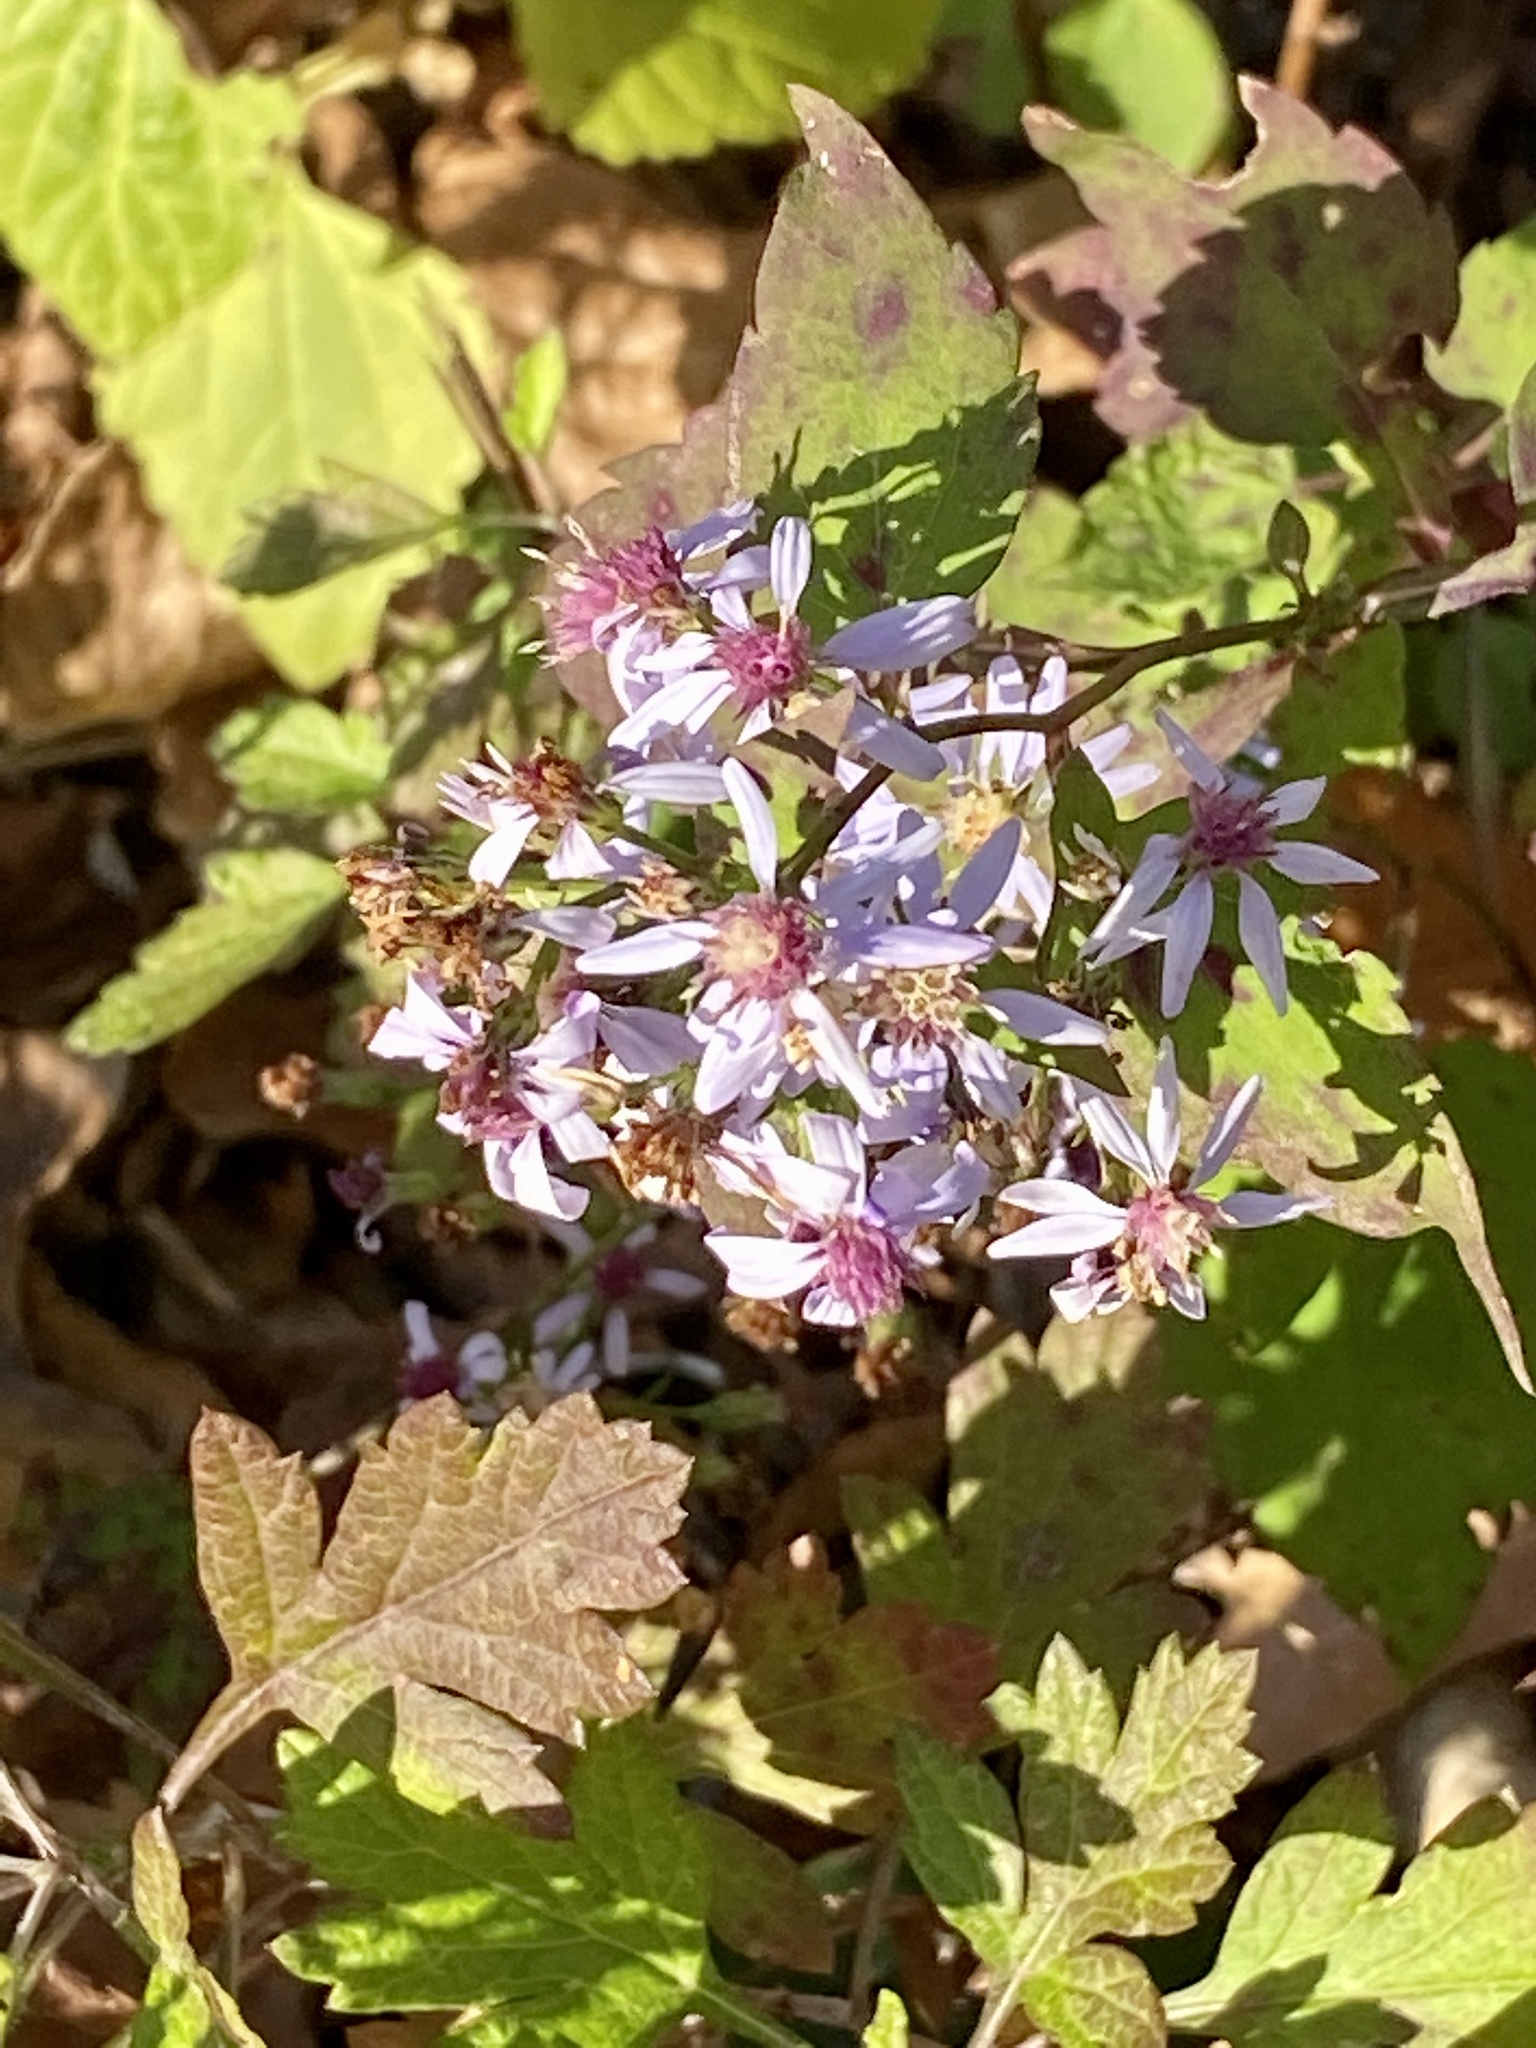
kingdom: Plantae
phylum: Tracheophyta
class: Magnoliopsida
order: Asterales
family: Asteraceae
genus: Symphyotrichum
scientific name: Symphyotrichum cordifolium
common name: Beeweed
